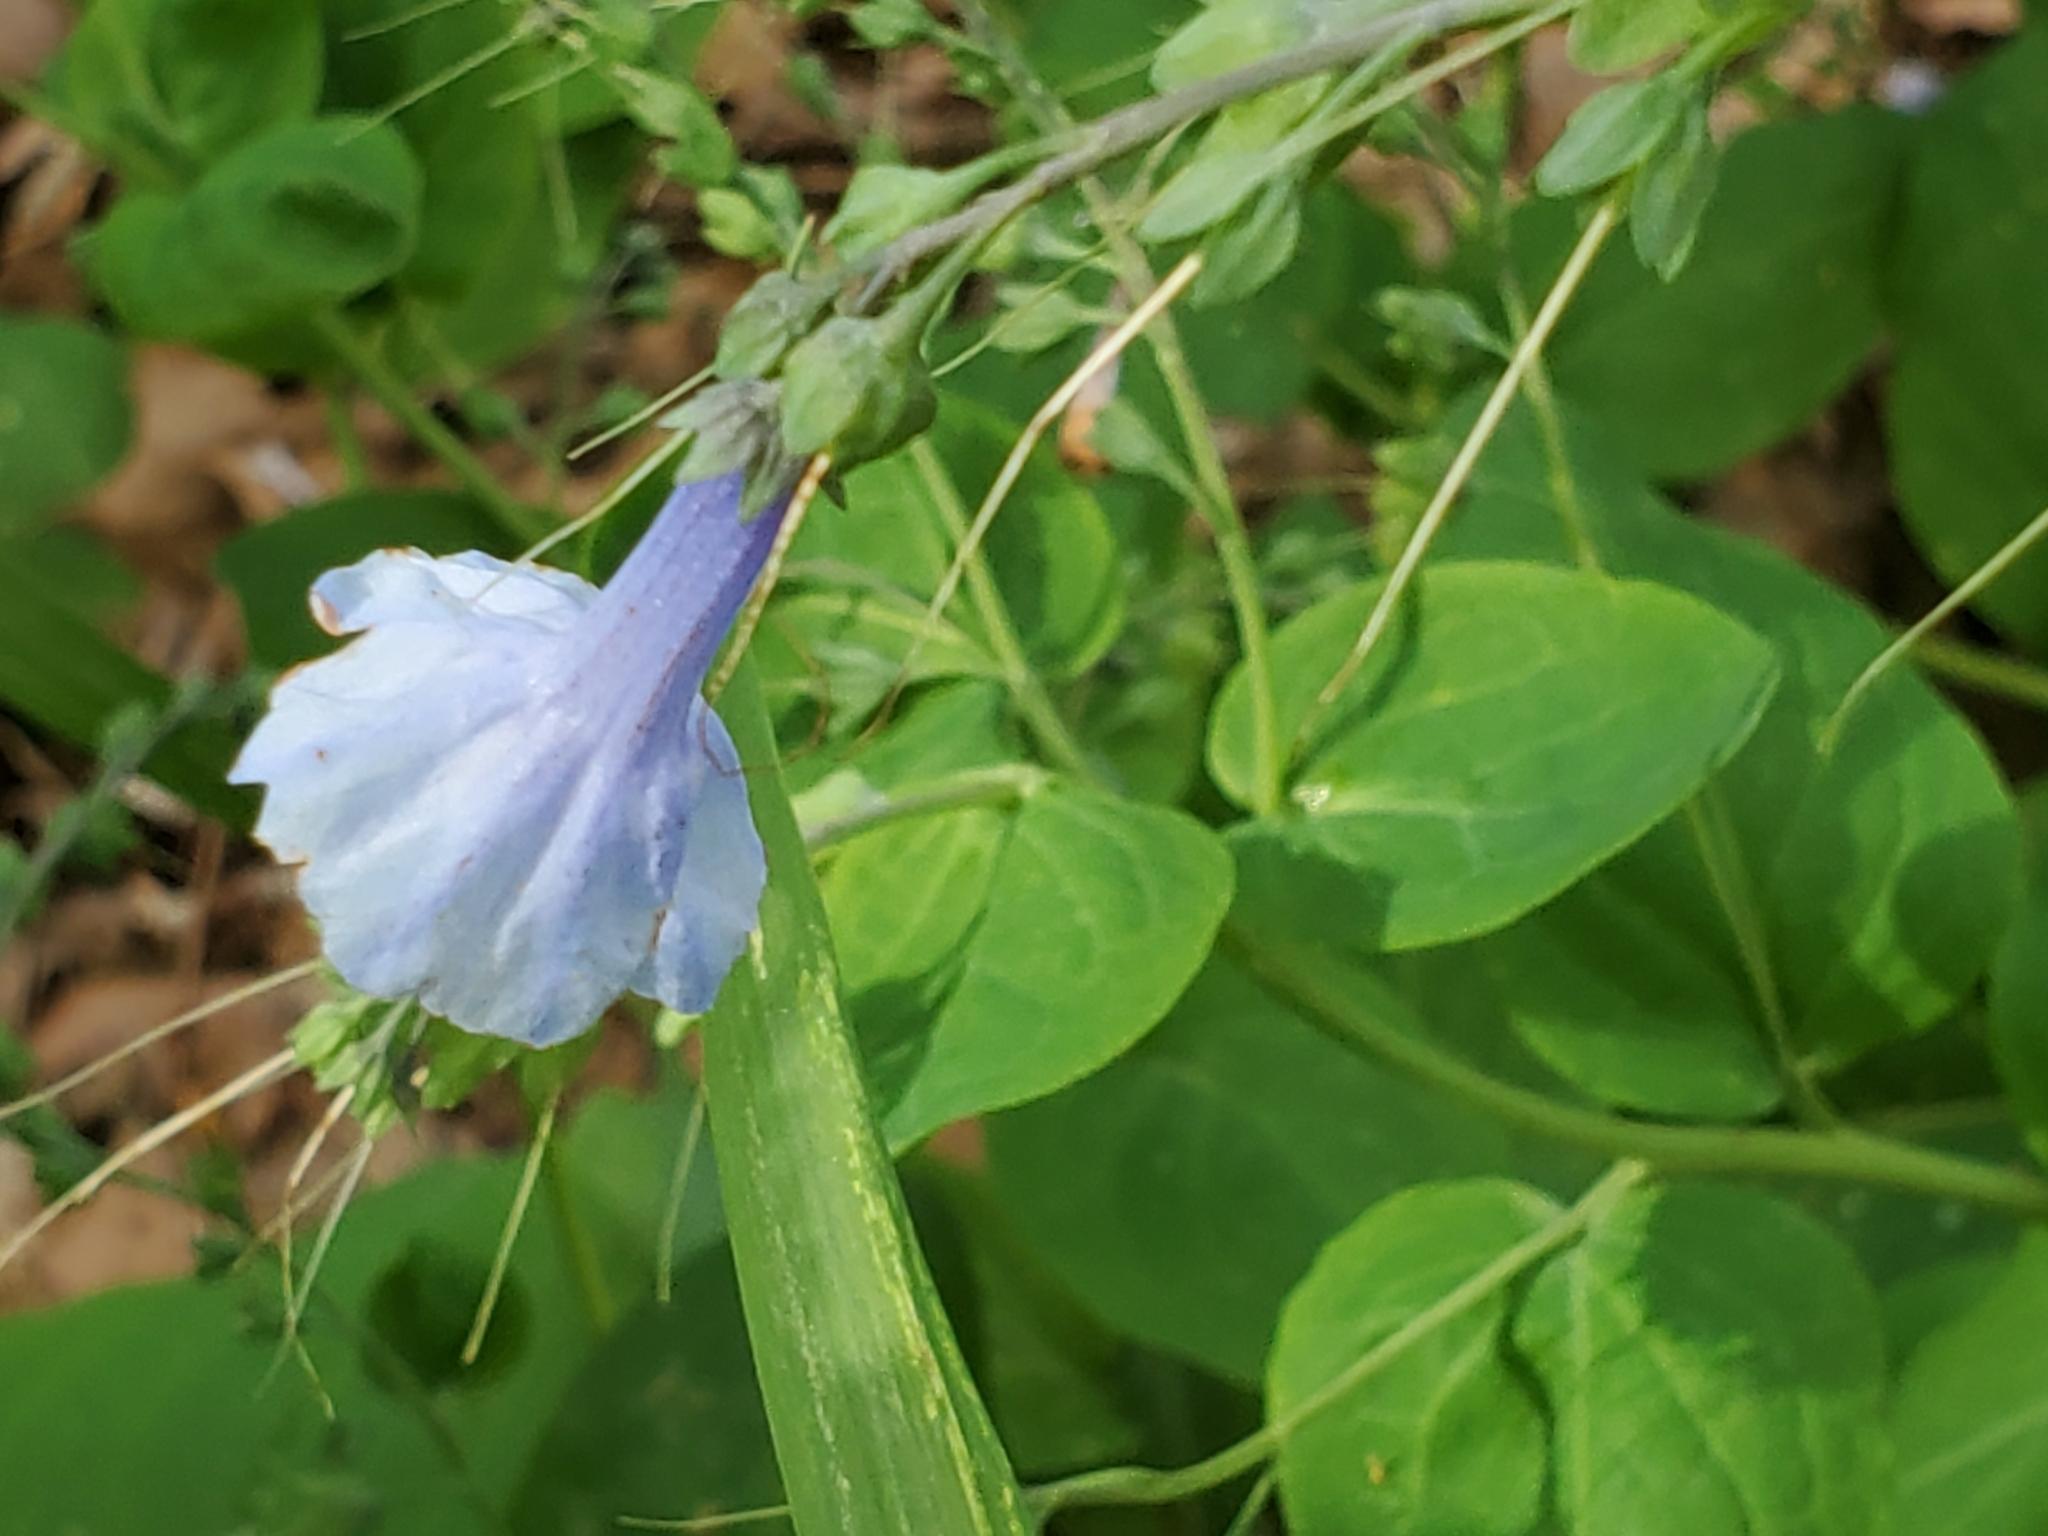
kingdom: Plantae
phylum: Tracheophyta
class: Magnoliopsida
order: Boraginales
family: Boraginaceae
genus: Mertensia
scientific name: Mertensia virginica
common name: Virginia bluebells
